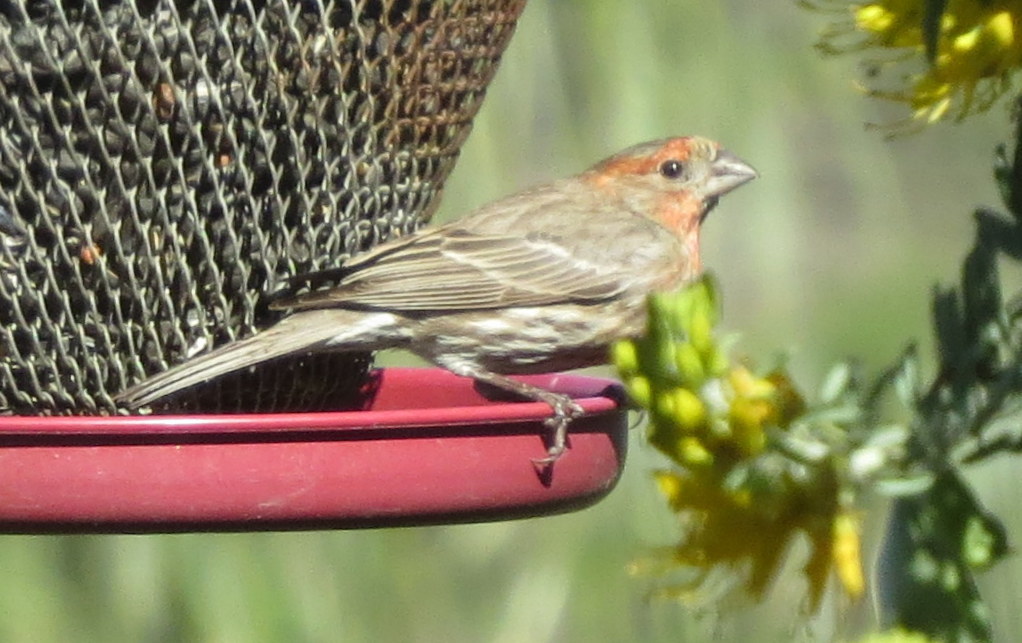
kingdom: Animalia
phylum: Chordata
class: Aves
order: Passeriformes
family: Fringillidae
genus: Haemorhous
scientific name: Haemorhous mexicanus
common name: House finch
